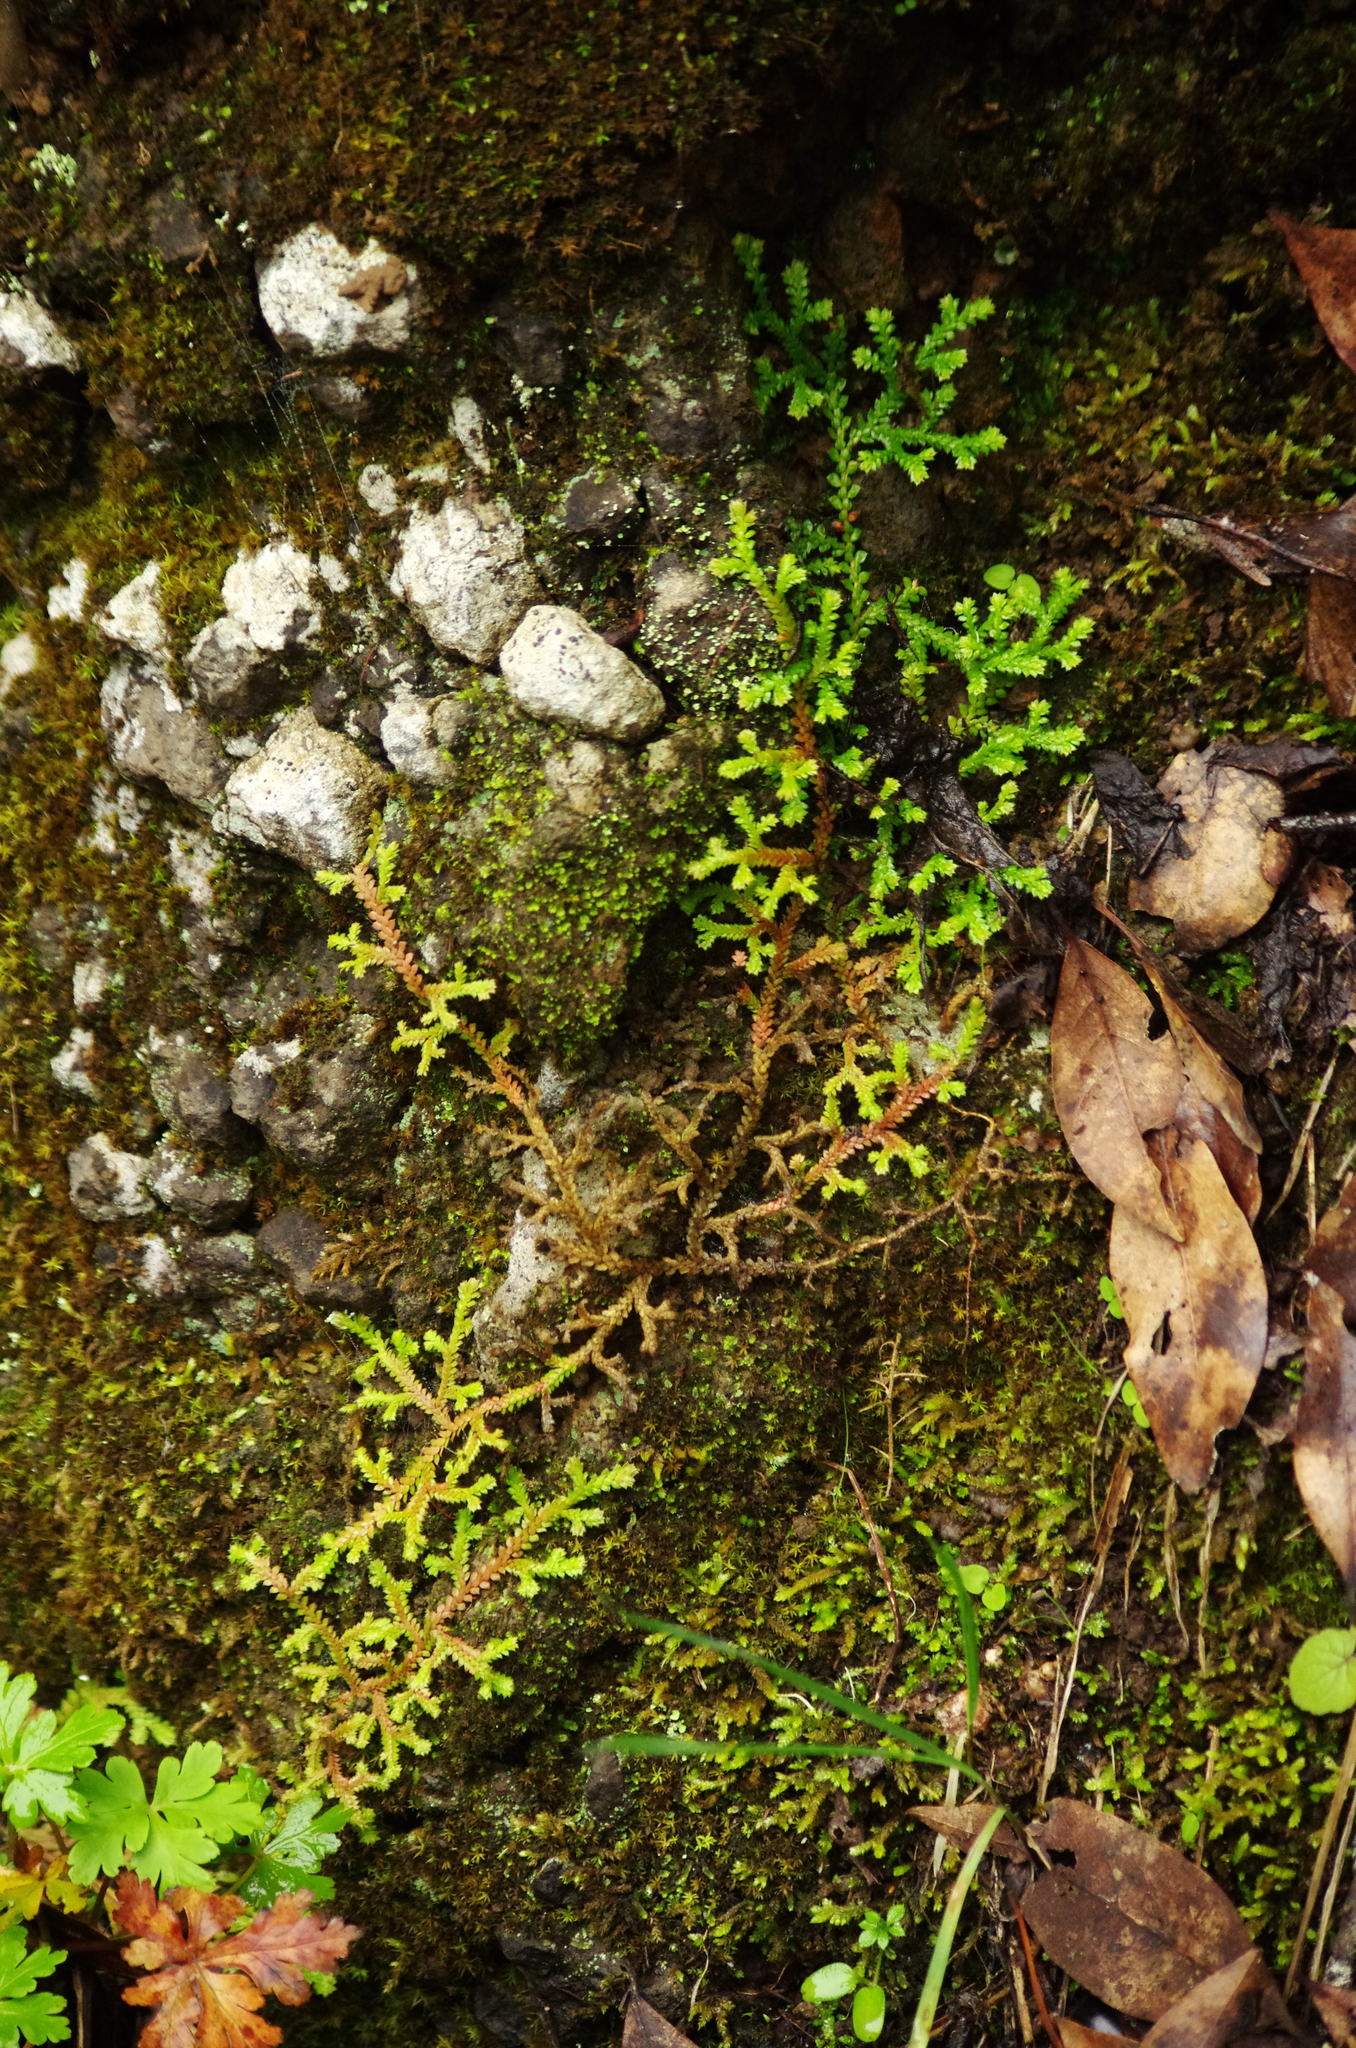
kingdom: Plantae
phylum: Tracheophyta
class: Lycopodiopsida
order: Selaginellales
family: Selaginellaceae
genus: Selaginella
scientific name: Selaginella denticulata
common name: Toothed-leaved clubmoss
